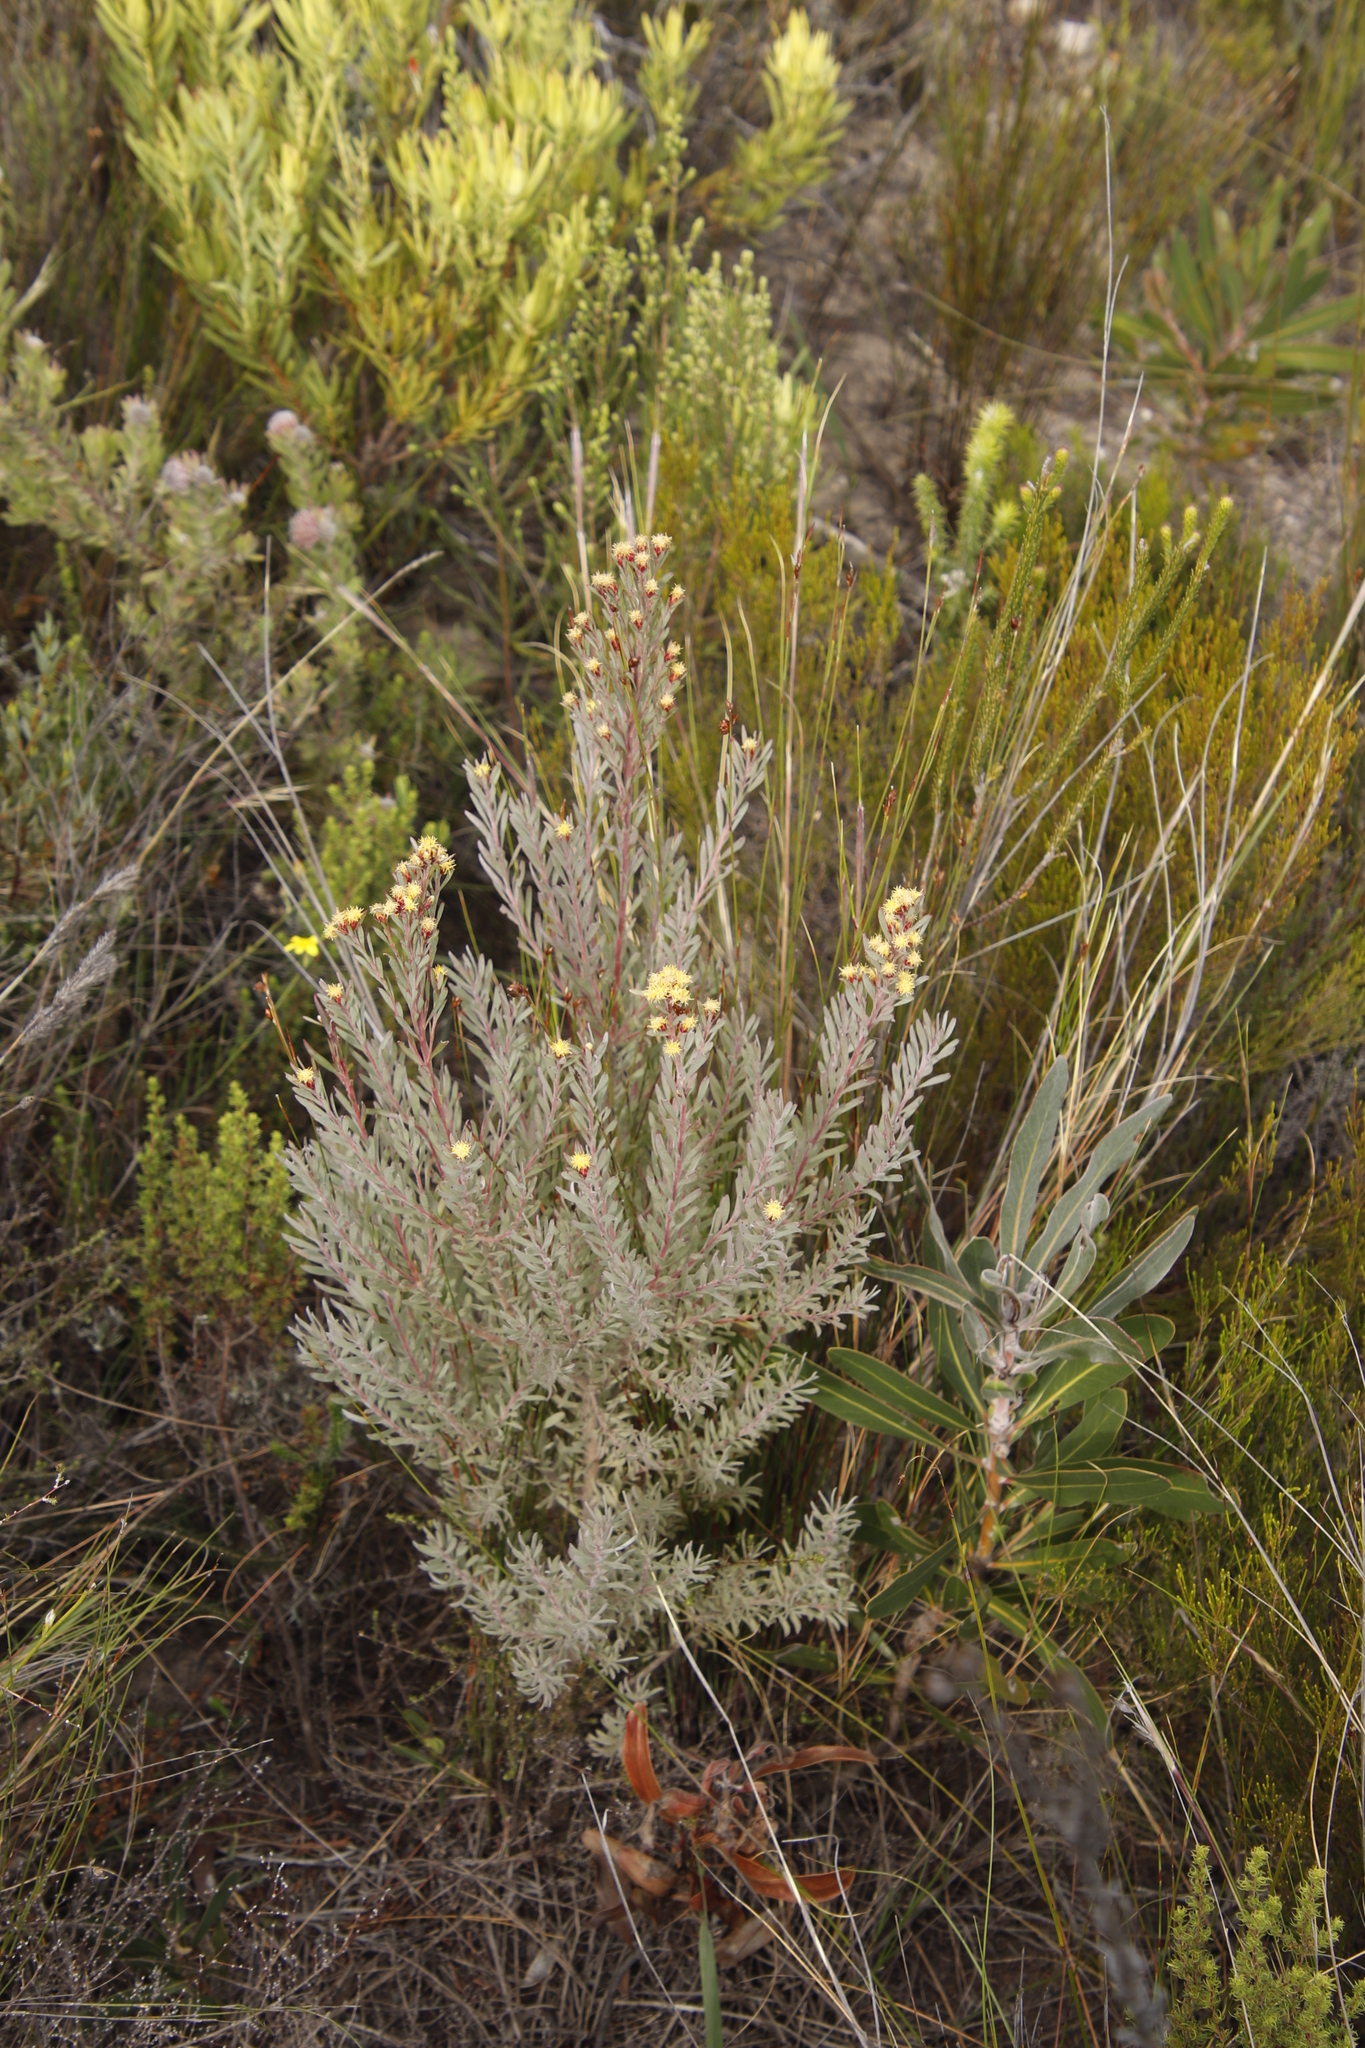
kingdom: Plantae
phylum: Tracheophyta
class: Magnoliopsida
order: Proteales
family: Proteaceae
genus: Leucadendron
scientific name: Leucadendron rubrum
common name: Spinning top
